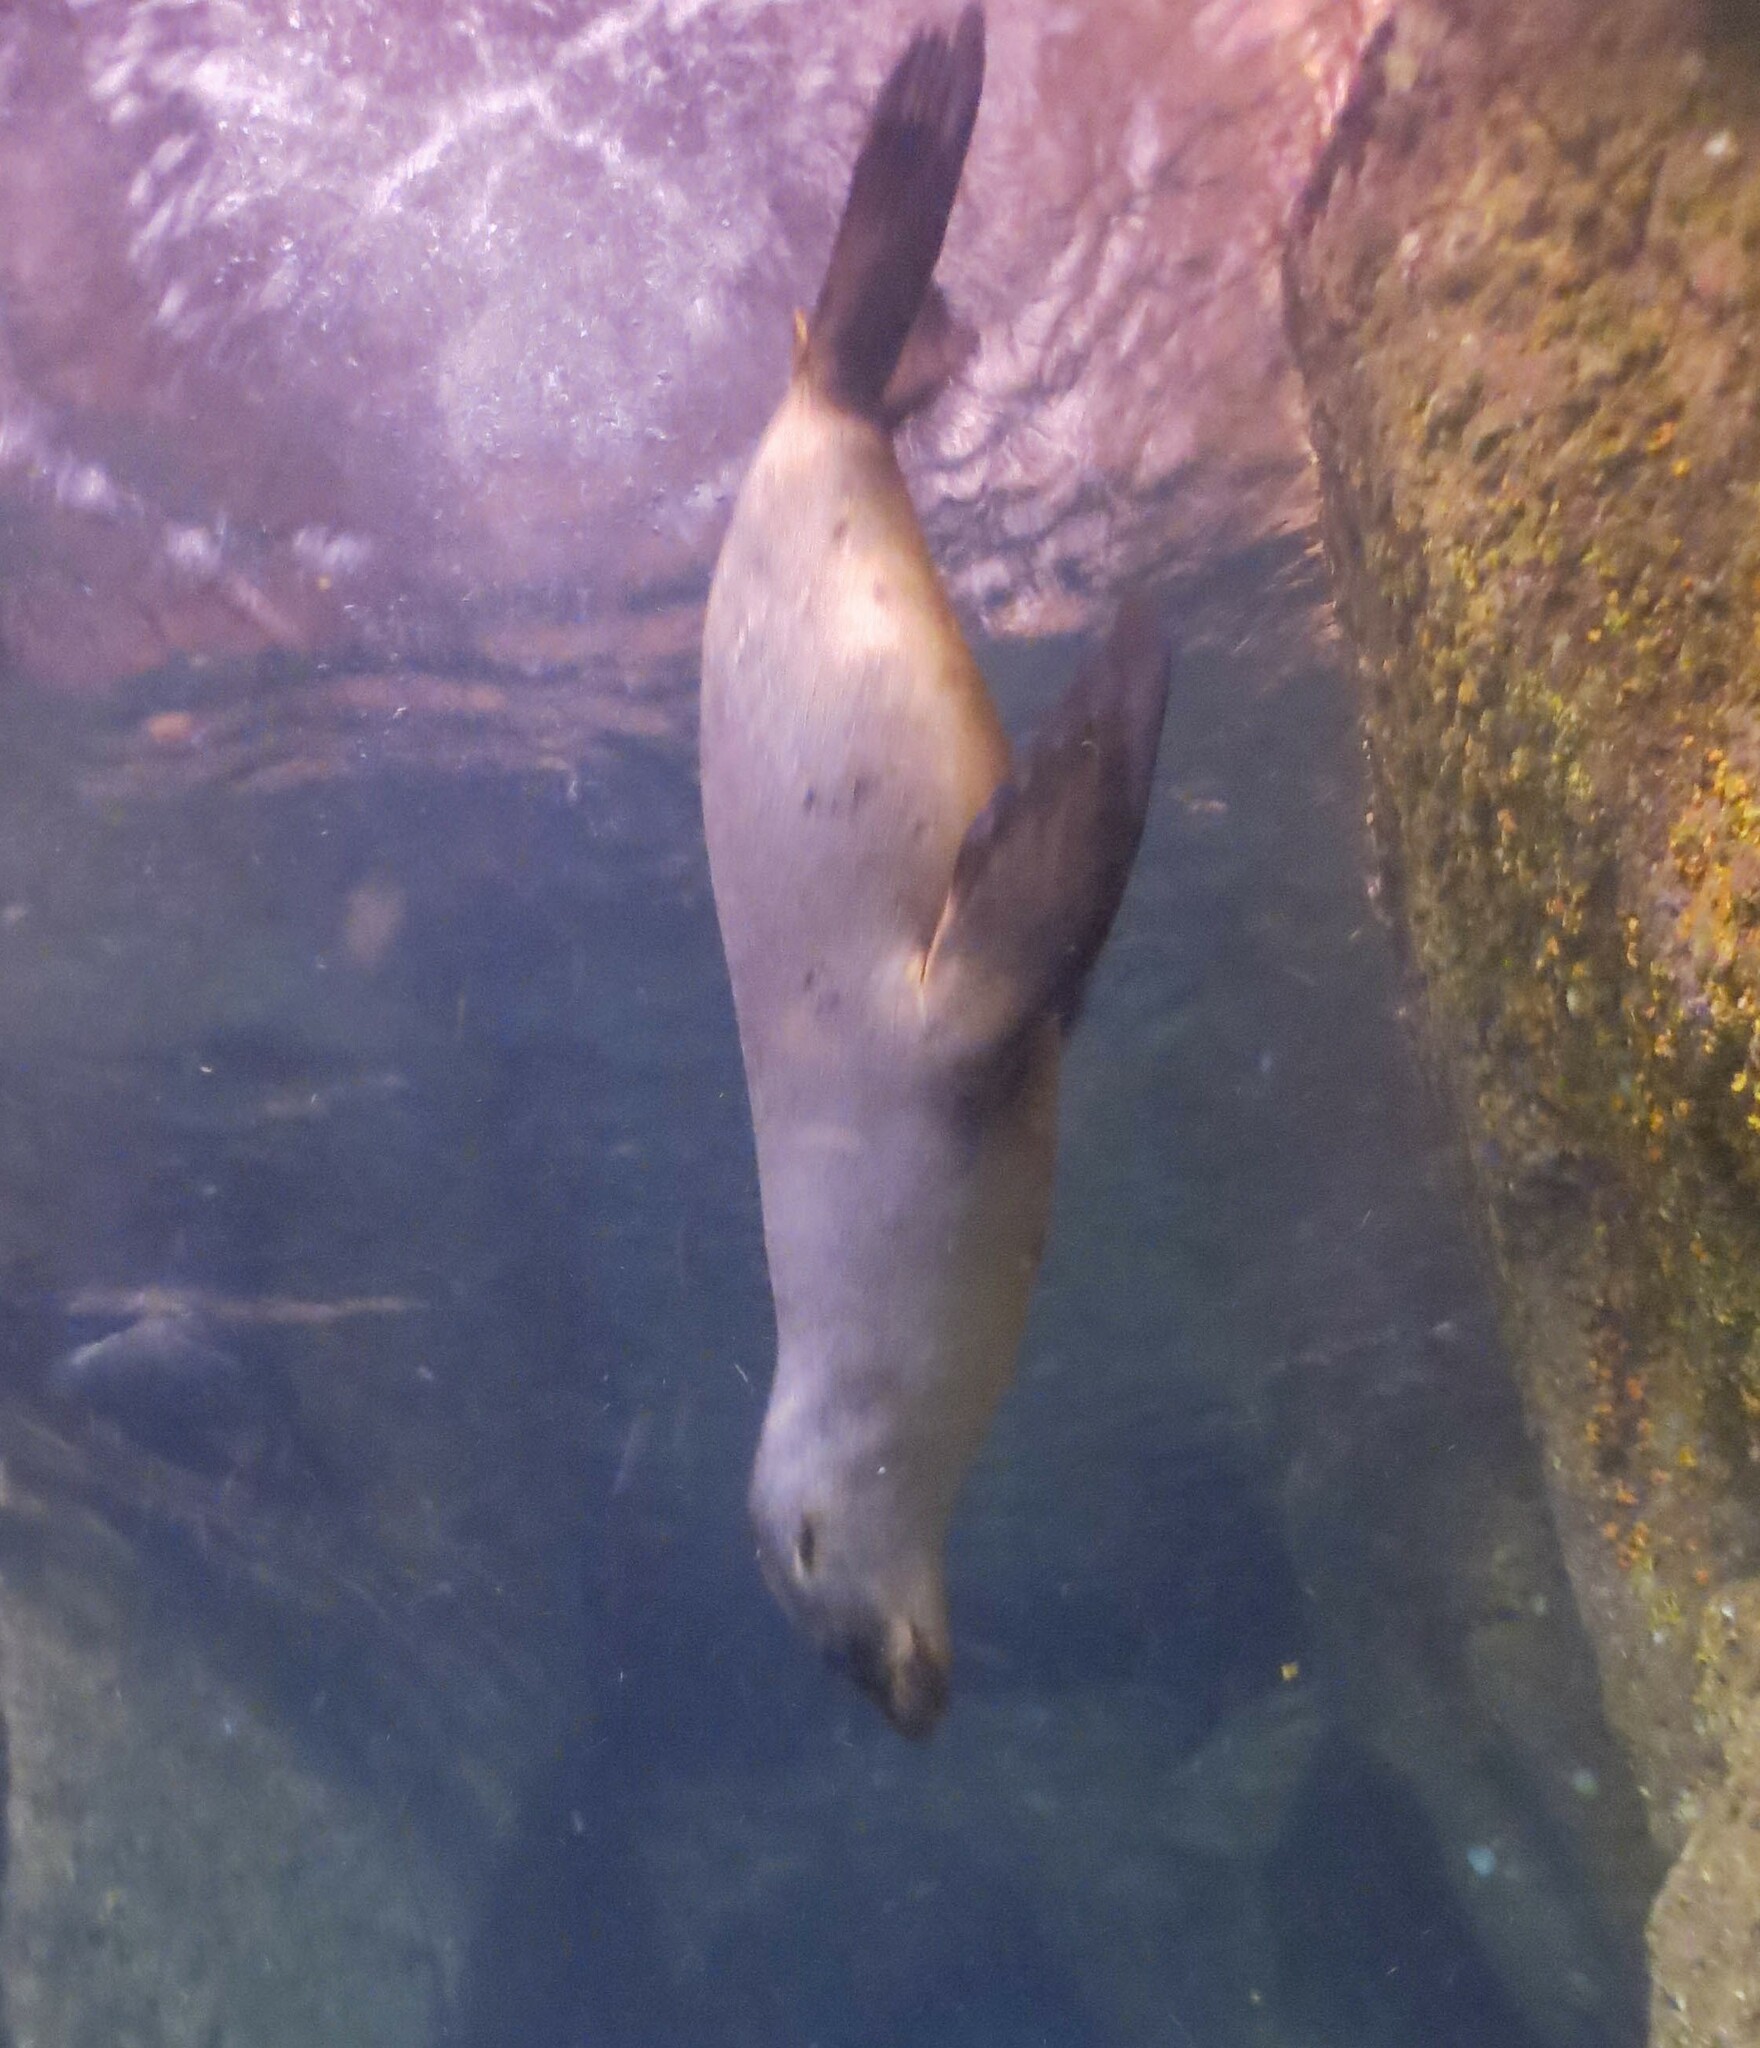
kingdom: Animalia
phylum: Chordata
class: Mammalia
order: Carnivora
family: Otariidae
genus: Zalophus
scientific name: Zalophus californianus
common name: California sea lion
